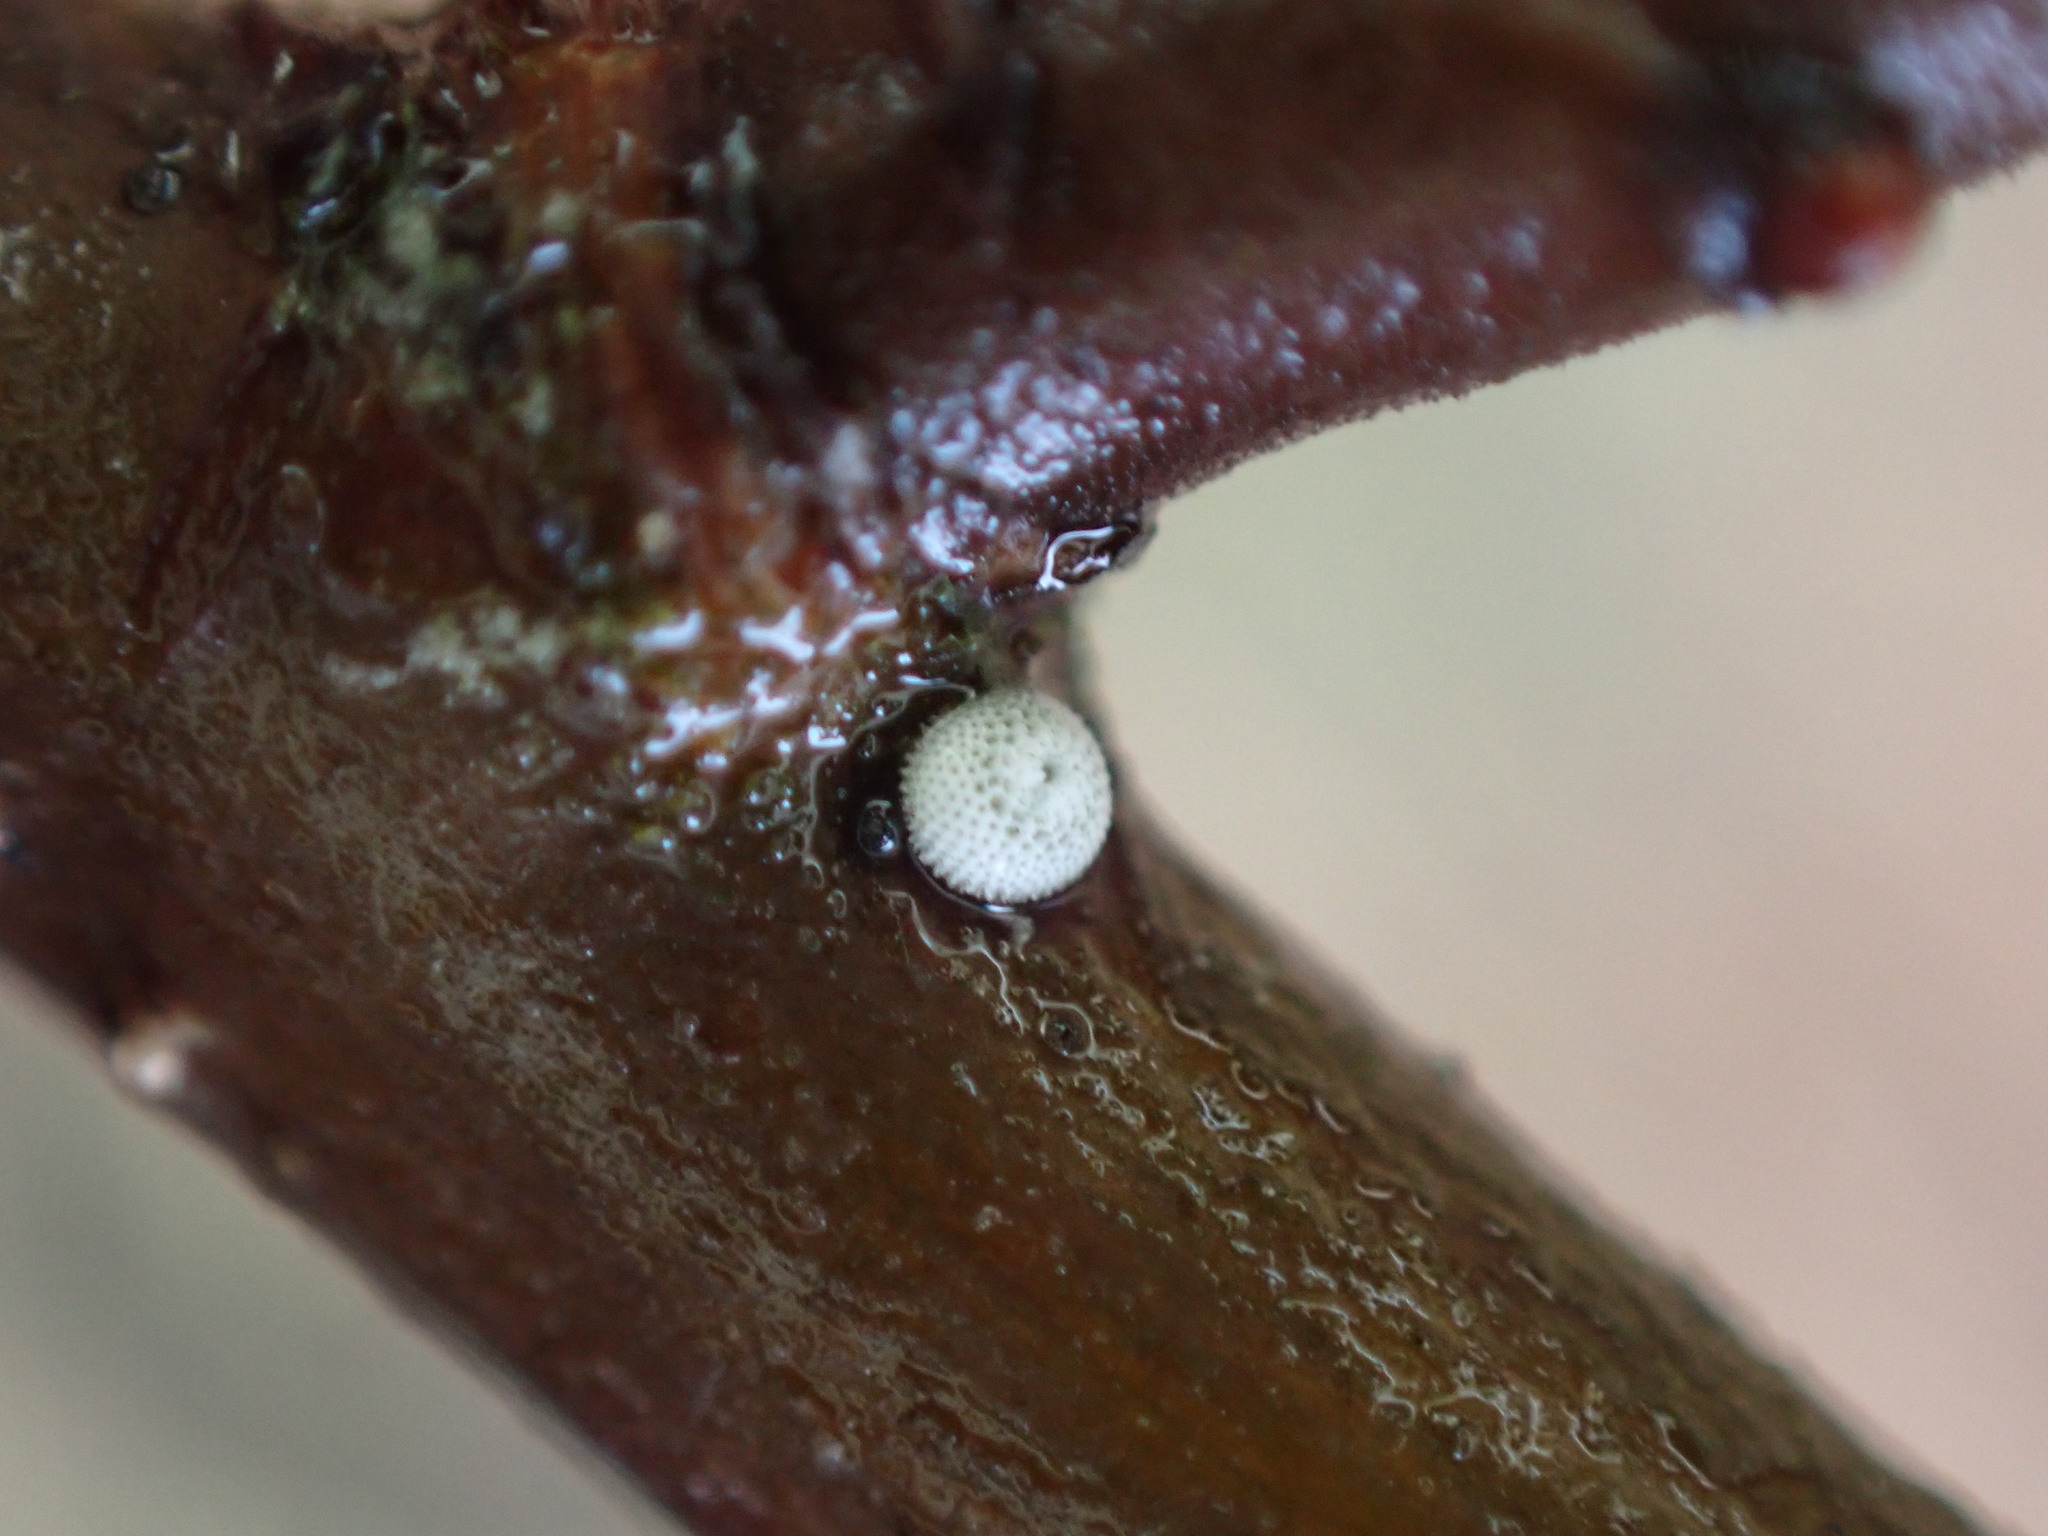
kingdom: Animalia
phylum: Arthropoda
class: Insecta
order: Lepidoptera
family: Lycaenidae
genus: Thecla
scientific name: Thecla betulae
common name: Brown hairstreak
